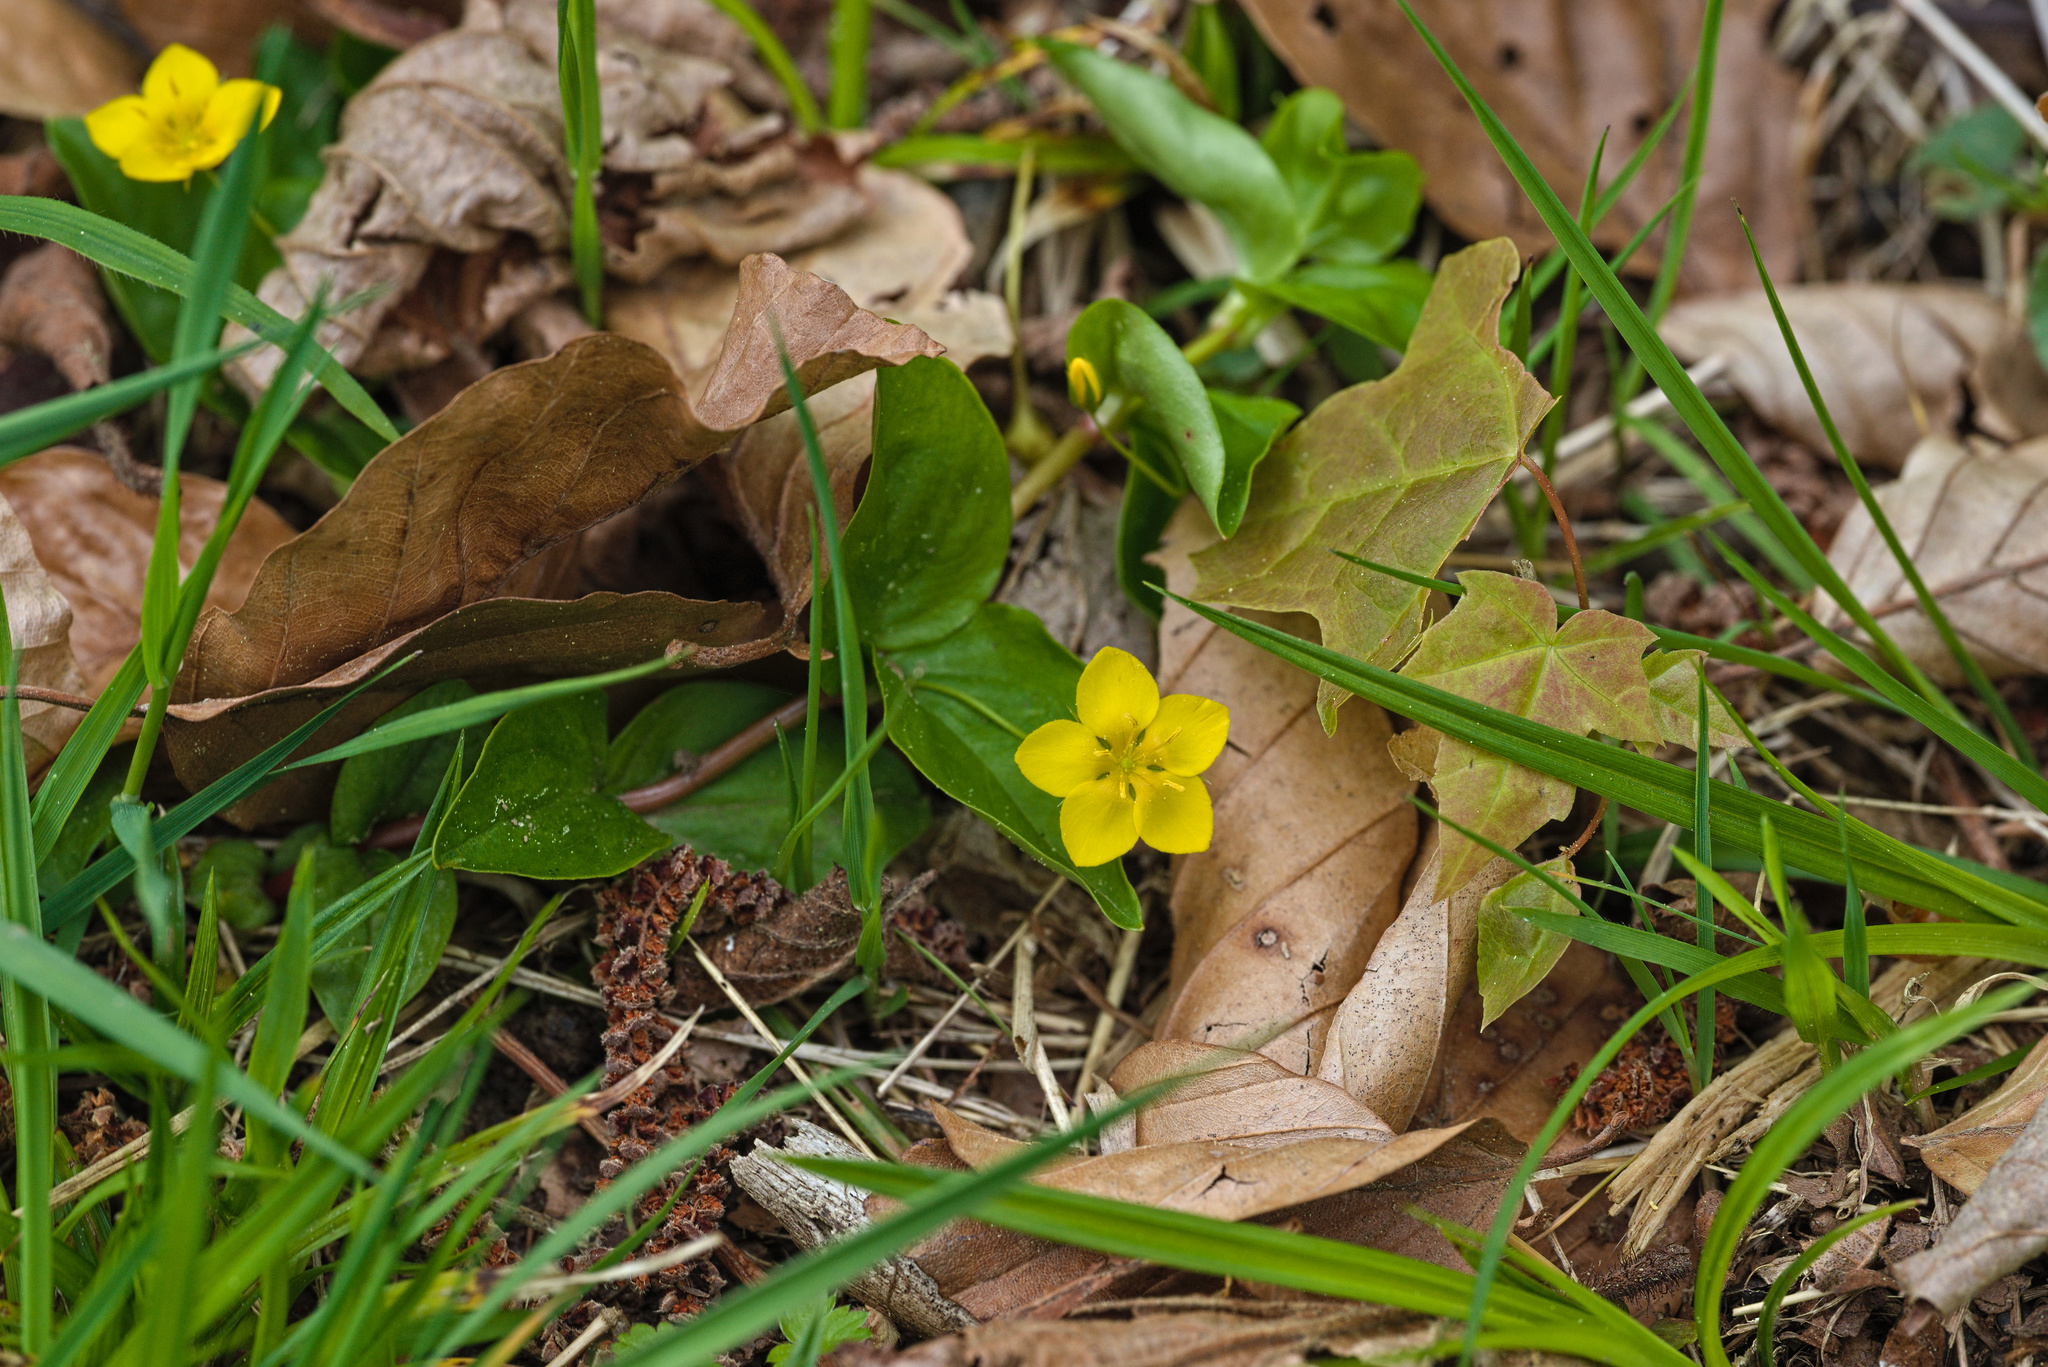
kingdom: Plantae
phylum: Tracheophyta
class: Magnoliopsida
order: Ericales
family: Primulaceae
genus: Lysimachia
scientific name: Lysimachia nemorum
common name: Yellow pimpernel
